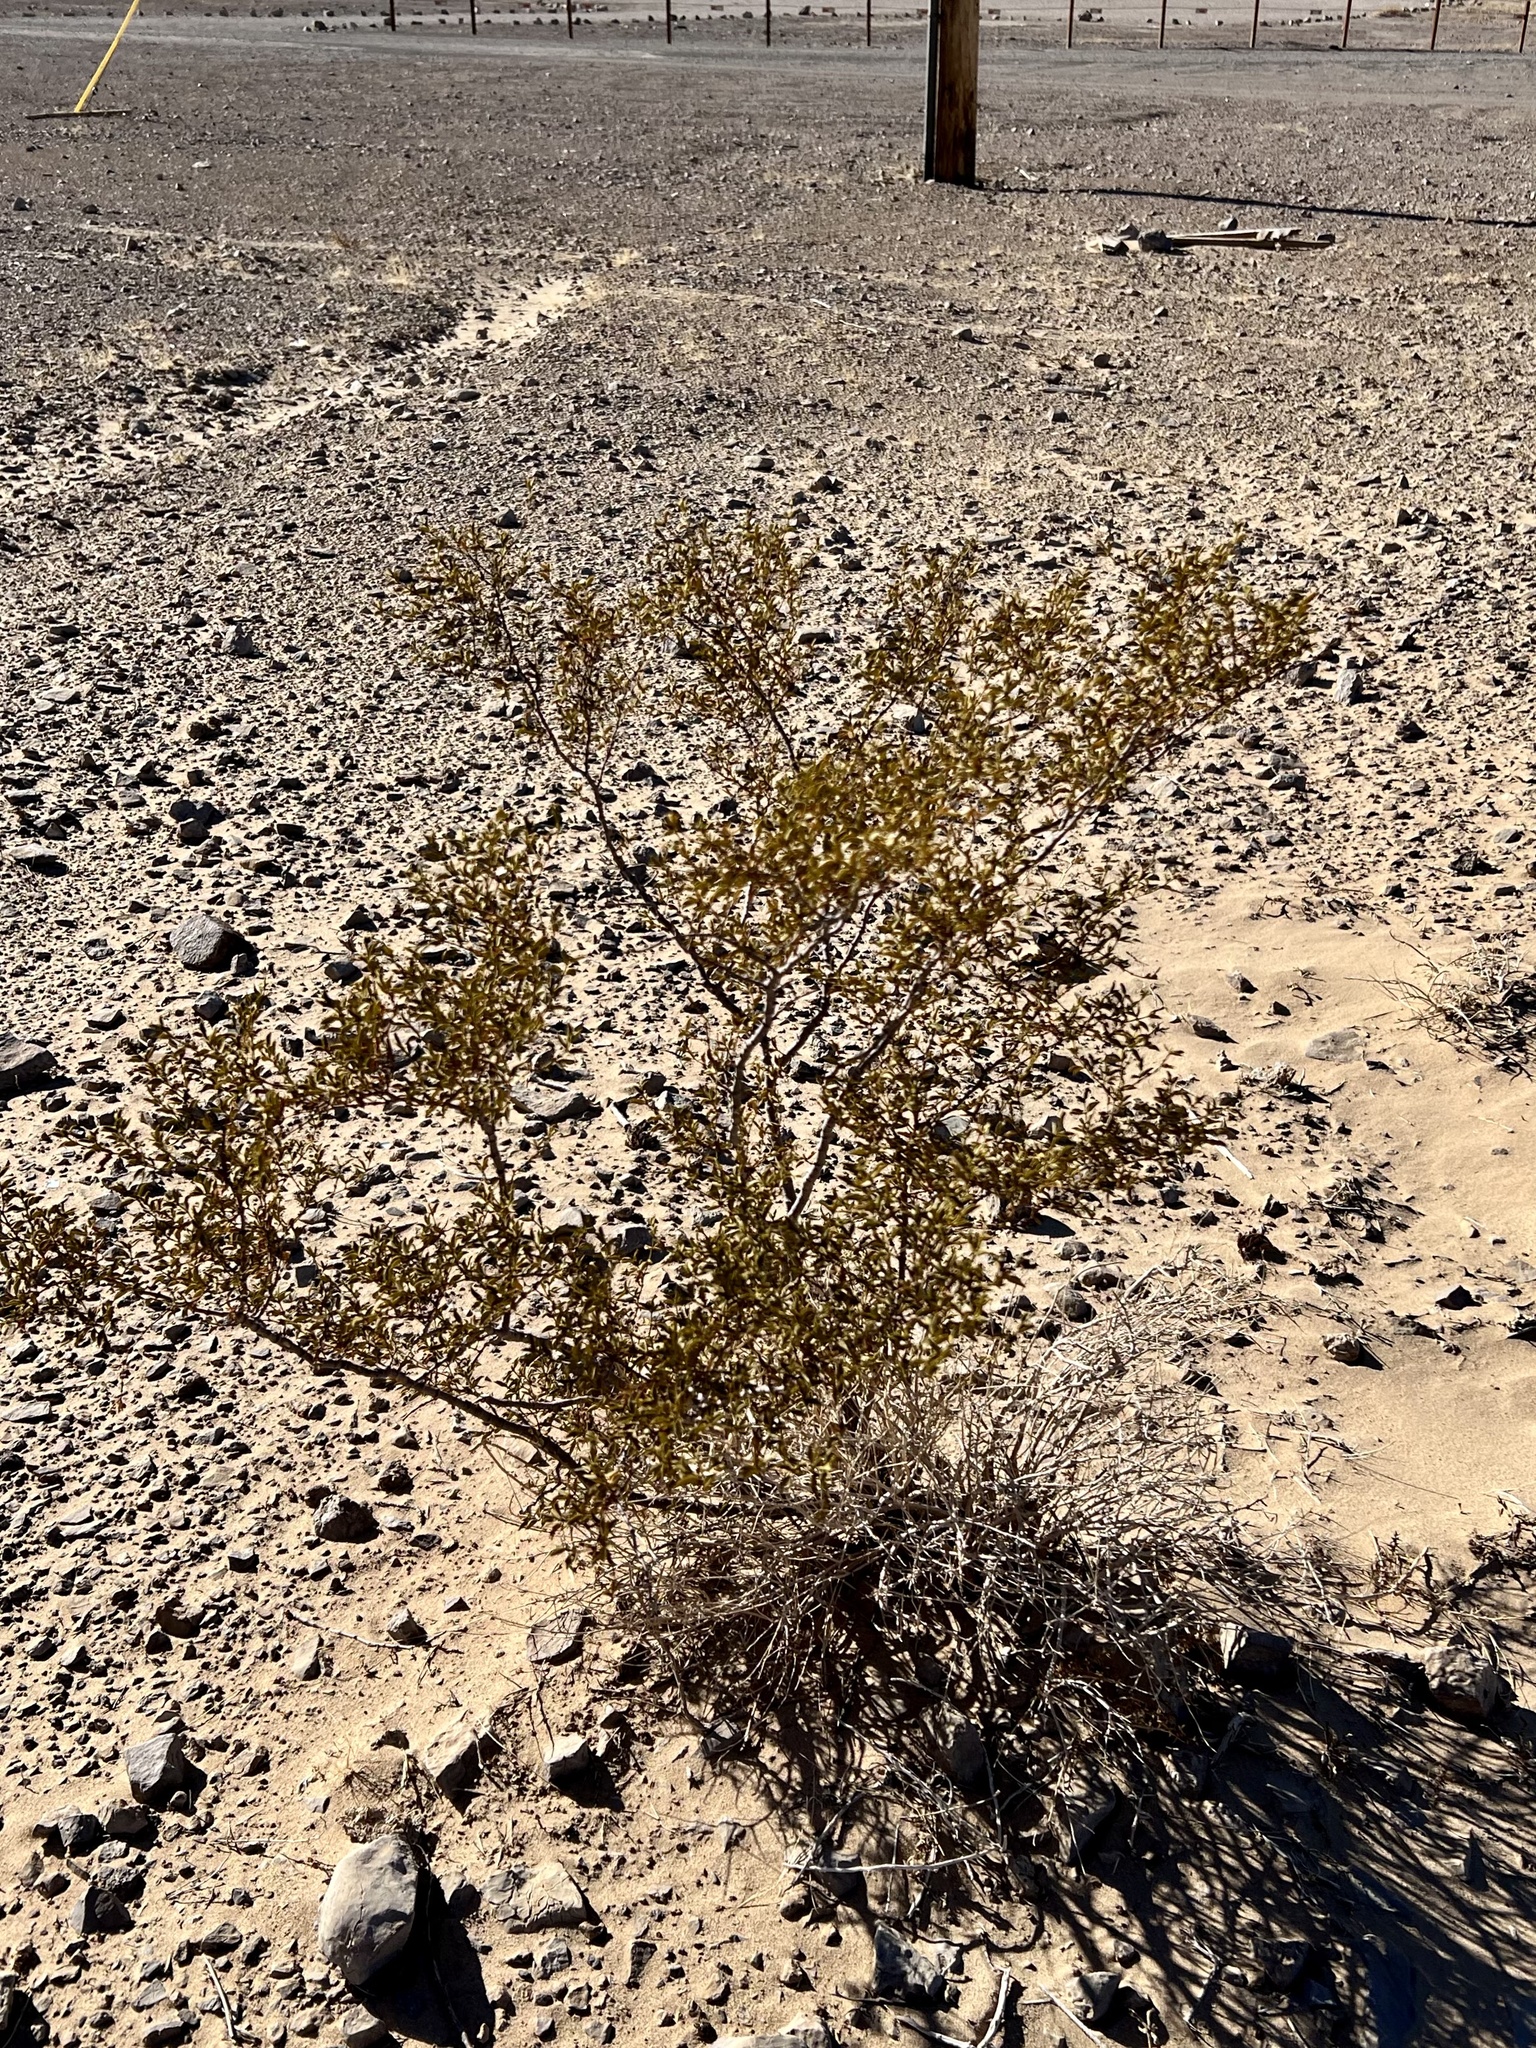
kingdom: Plantae
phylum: Tracheophyta
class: Magnoliopsida
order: Zygophyllales
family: Zygophyllaceae
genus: Larrea
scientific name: Larrea tridentata
